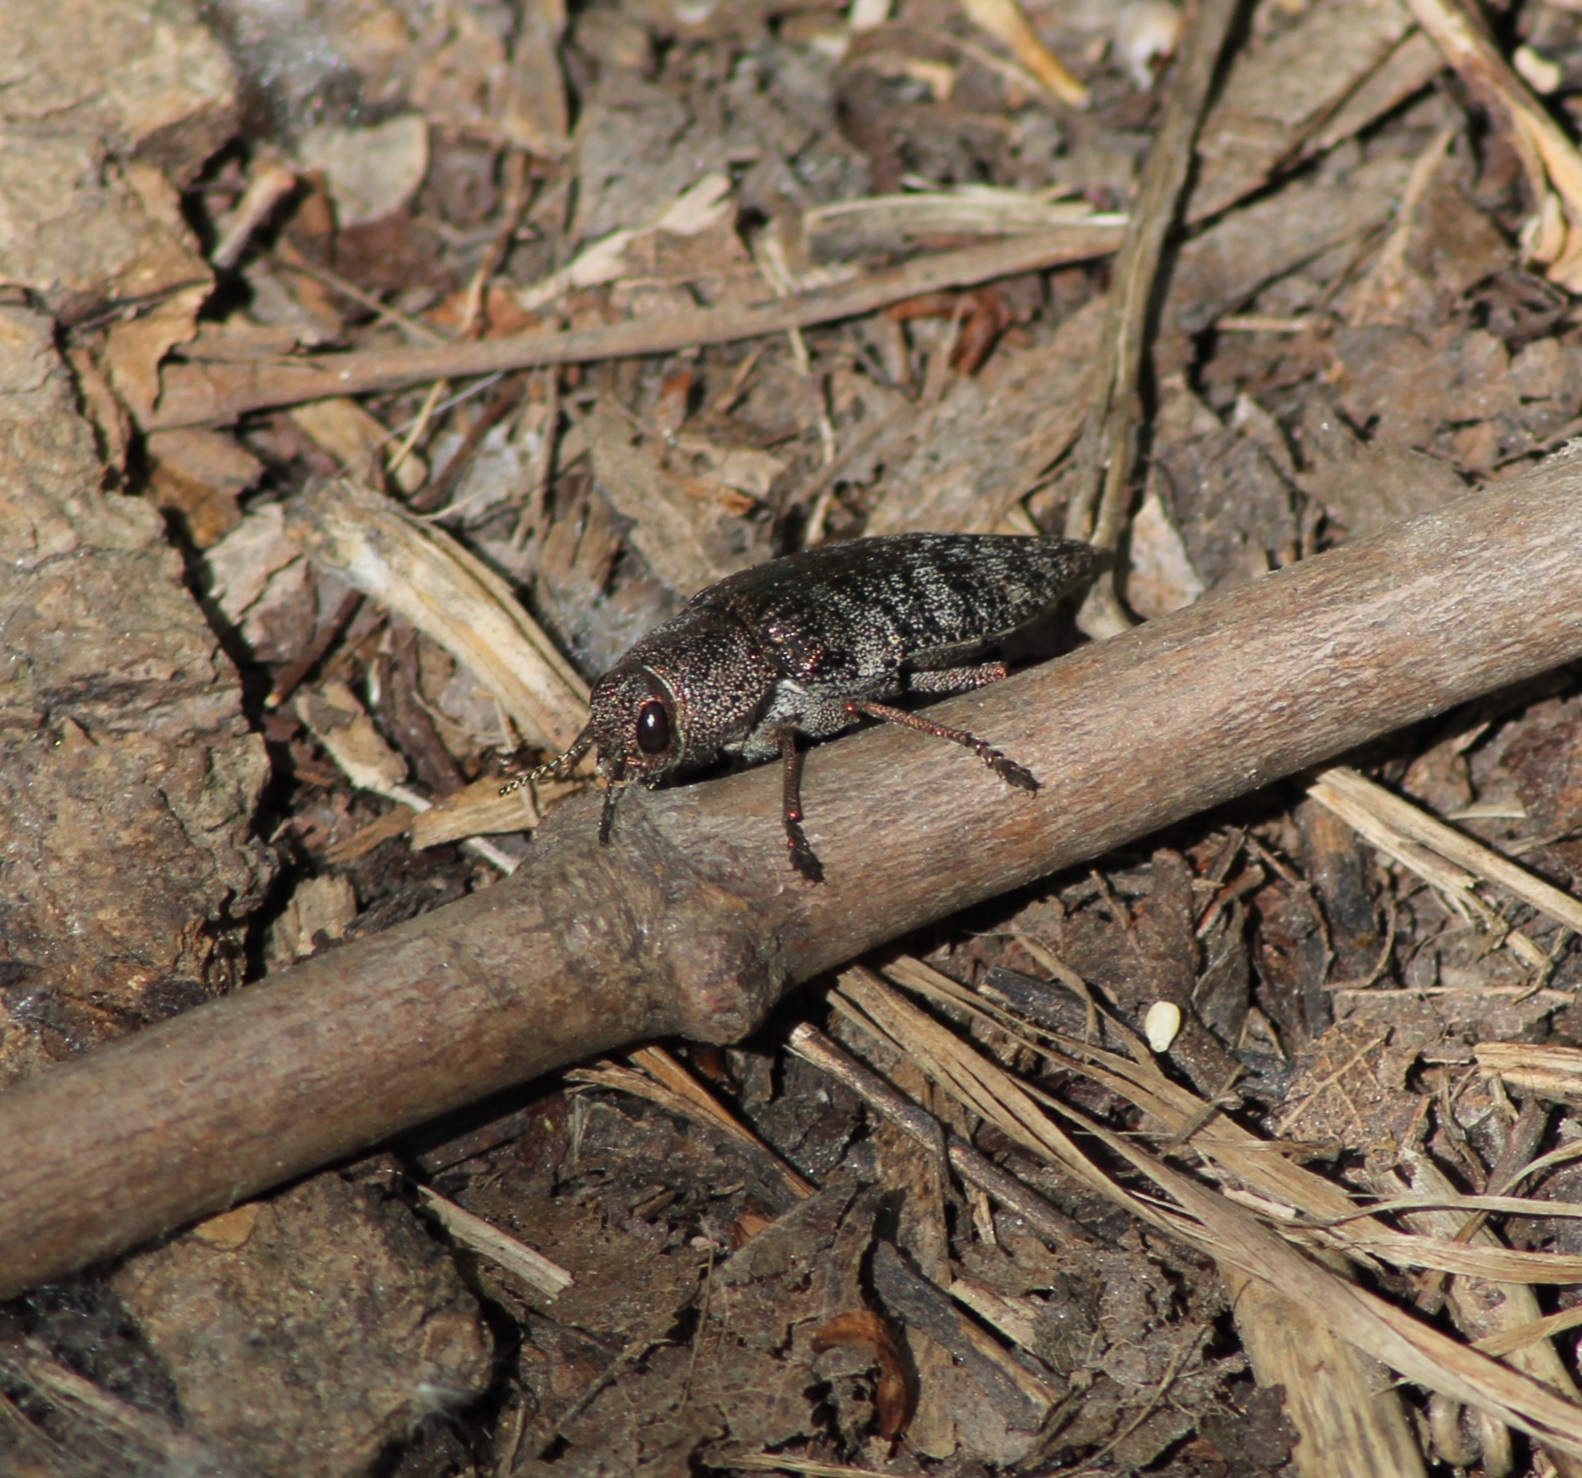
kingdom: Animalia
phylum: Arthropoda
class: Insecta
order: Coleoptera
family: Buprestidae
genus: Dicerca
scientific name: Dicerca aenea
